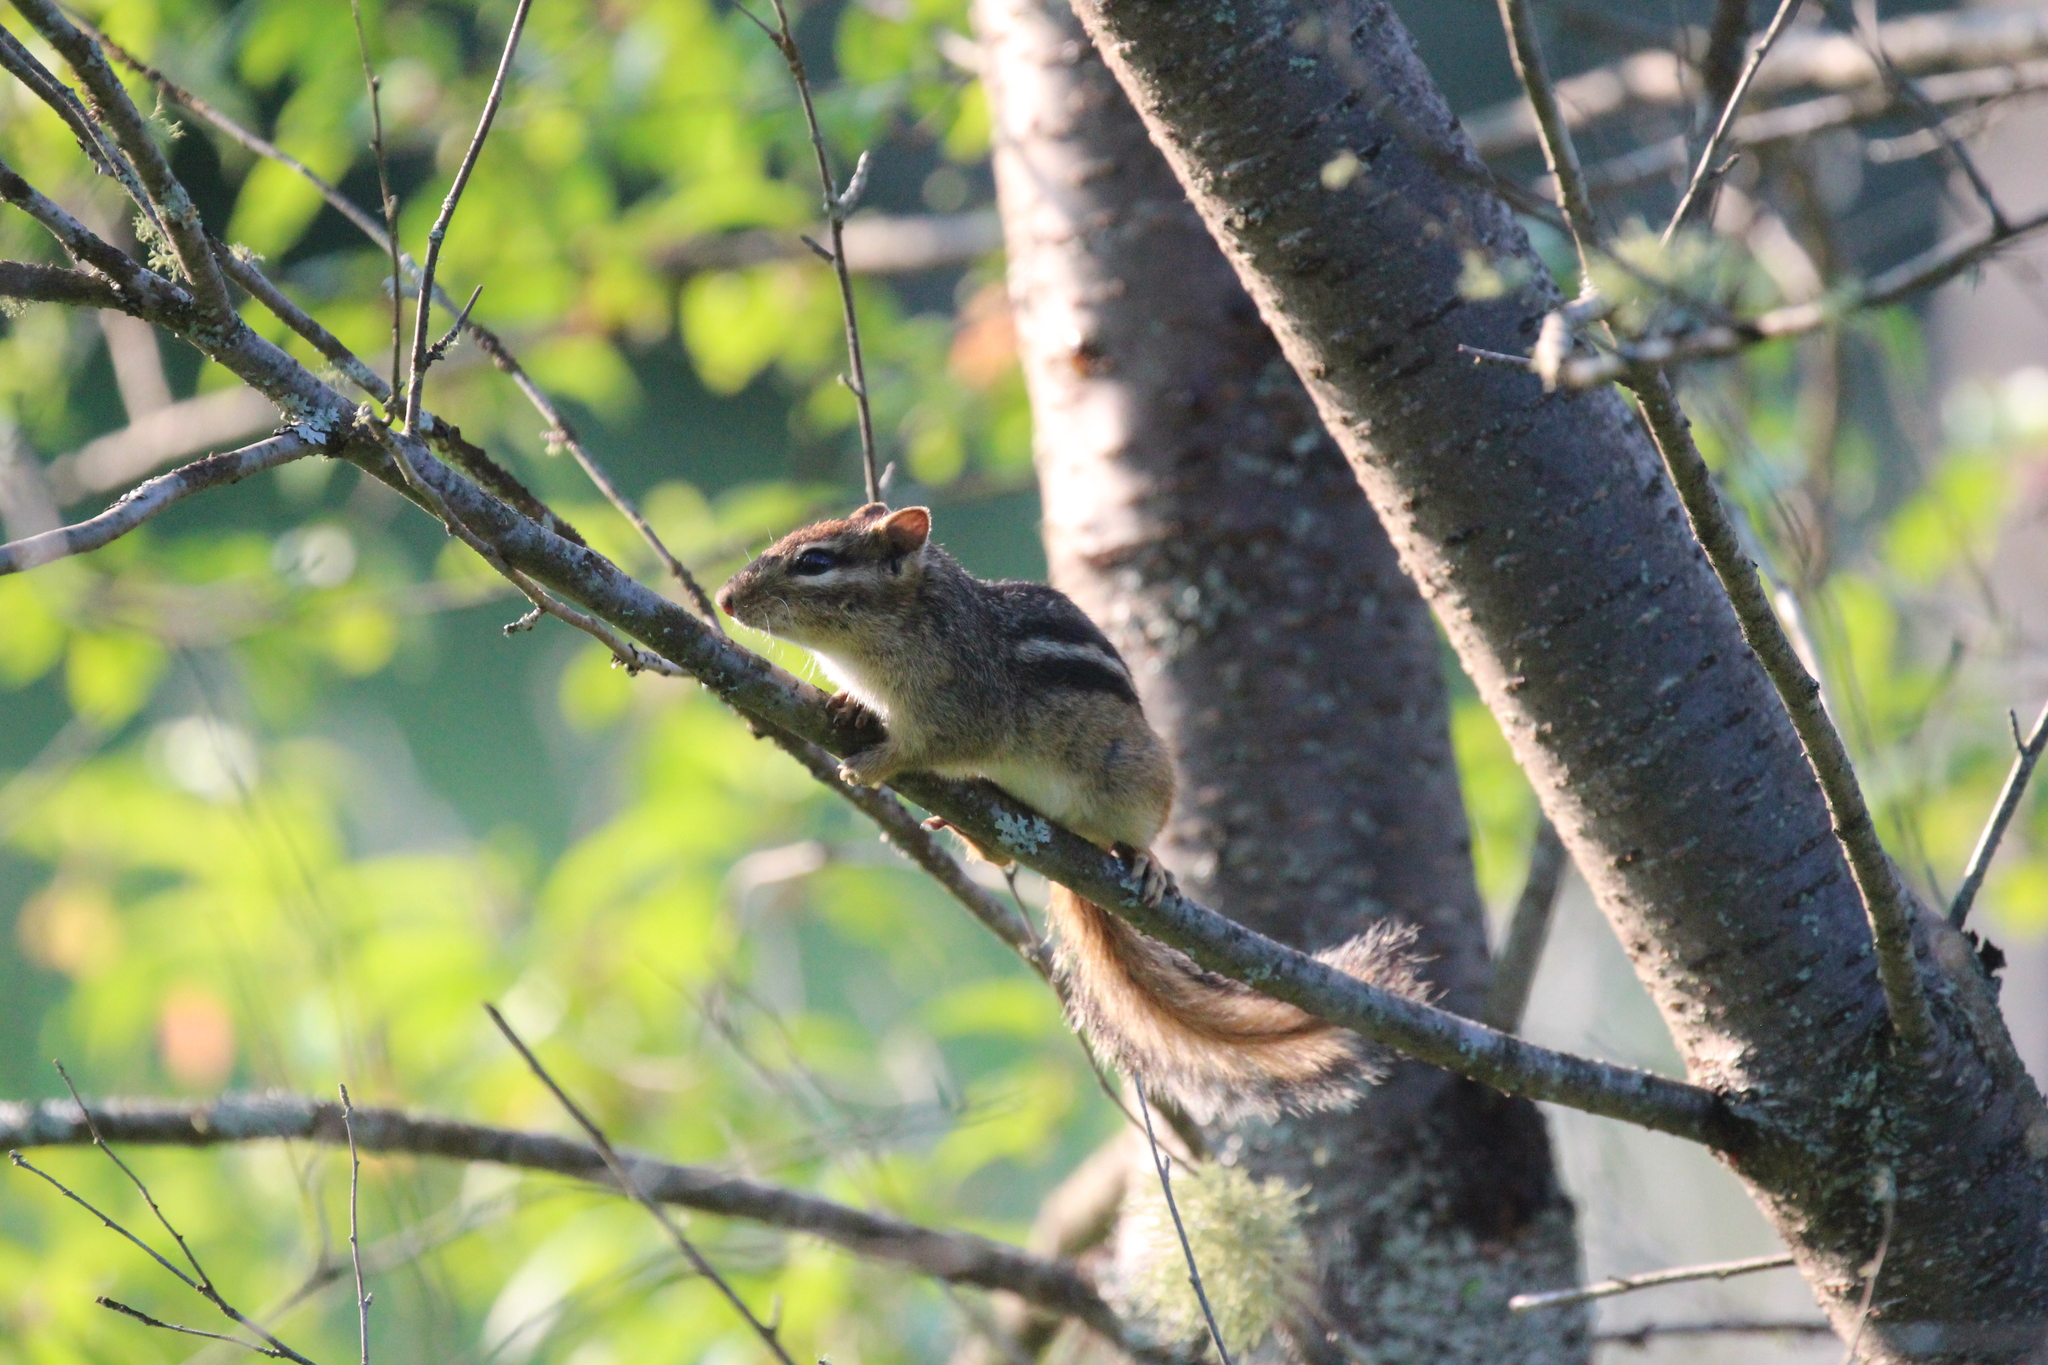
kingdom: Animalia
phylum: Chordata
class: Mammalia
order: Rodentia
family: Sciuridae
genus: Tamias
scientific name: Tamias striatus
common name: Eastern chipmunk
